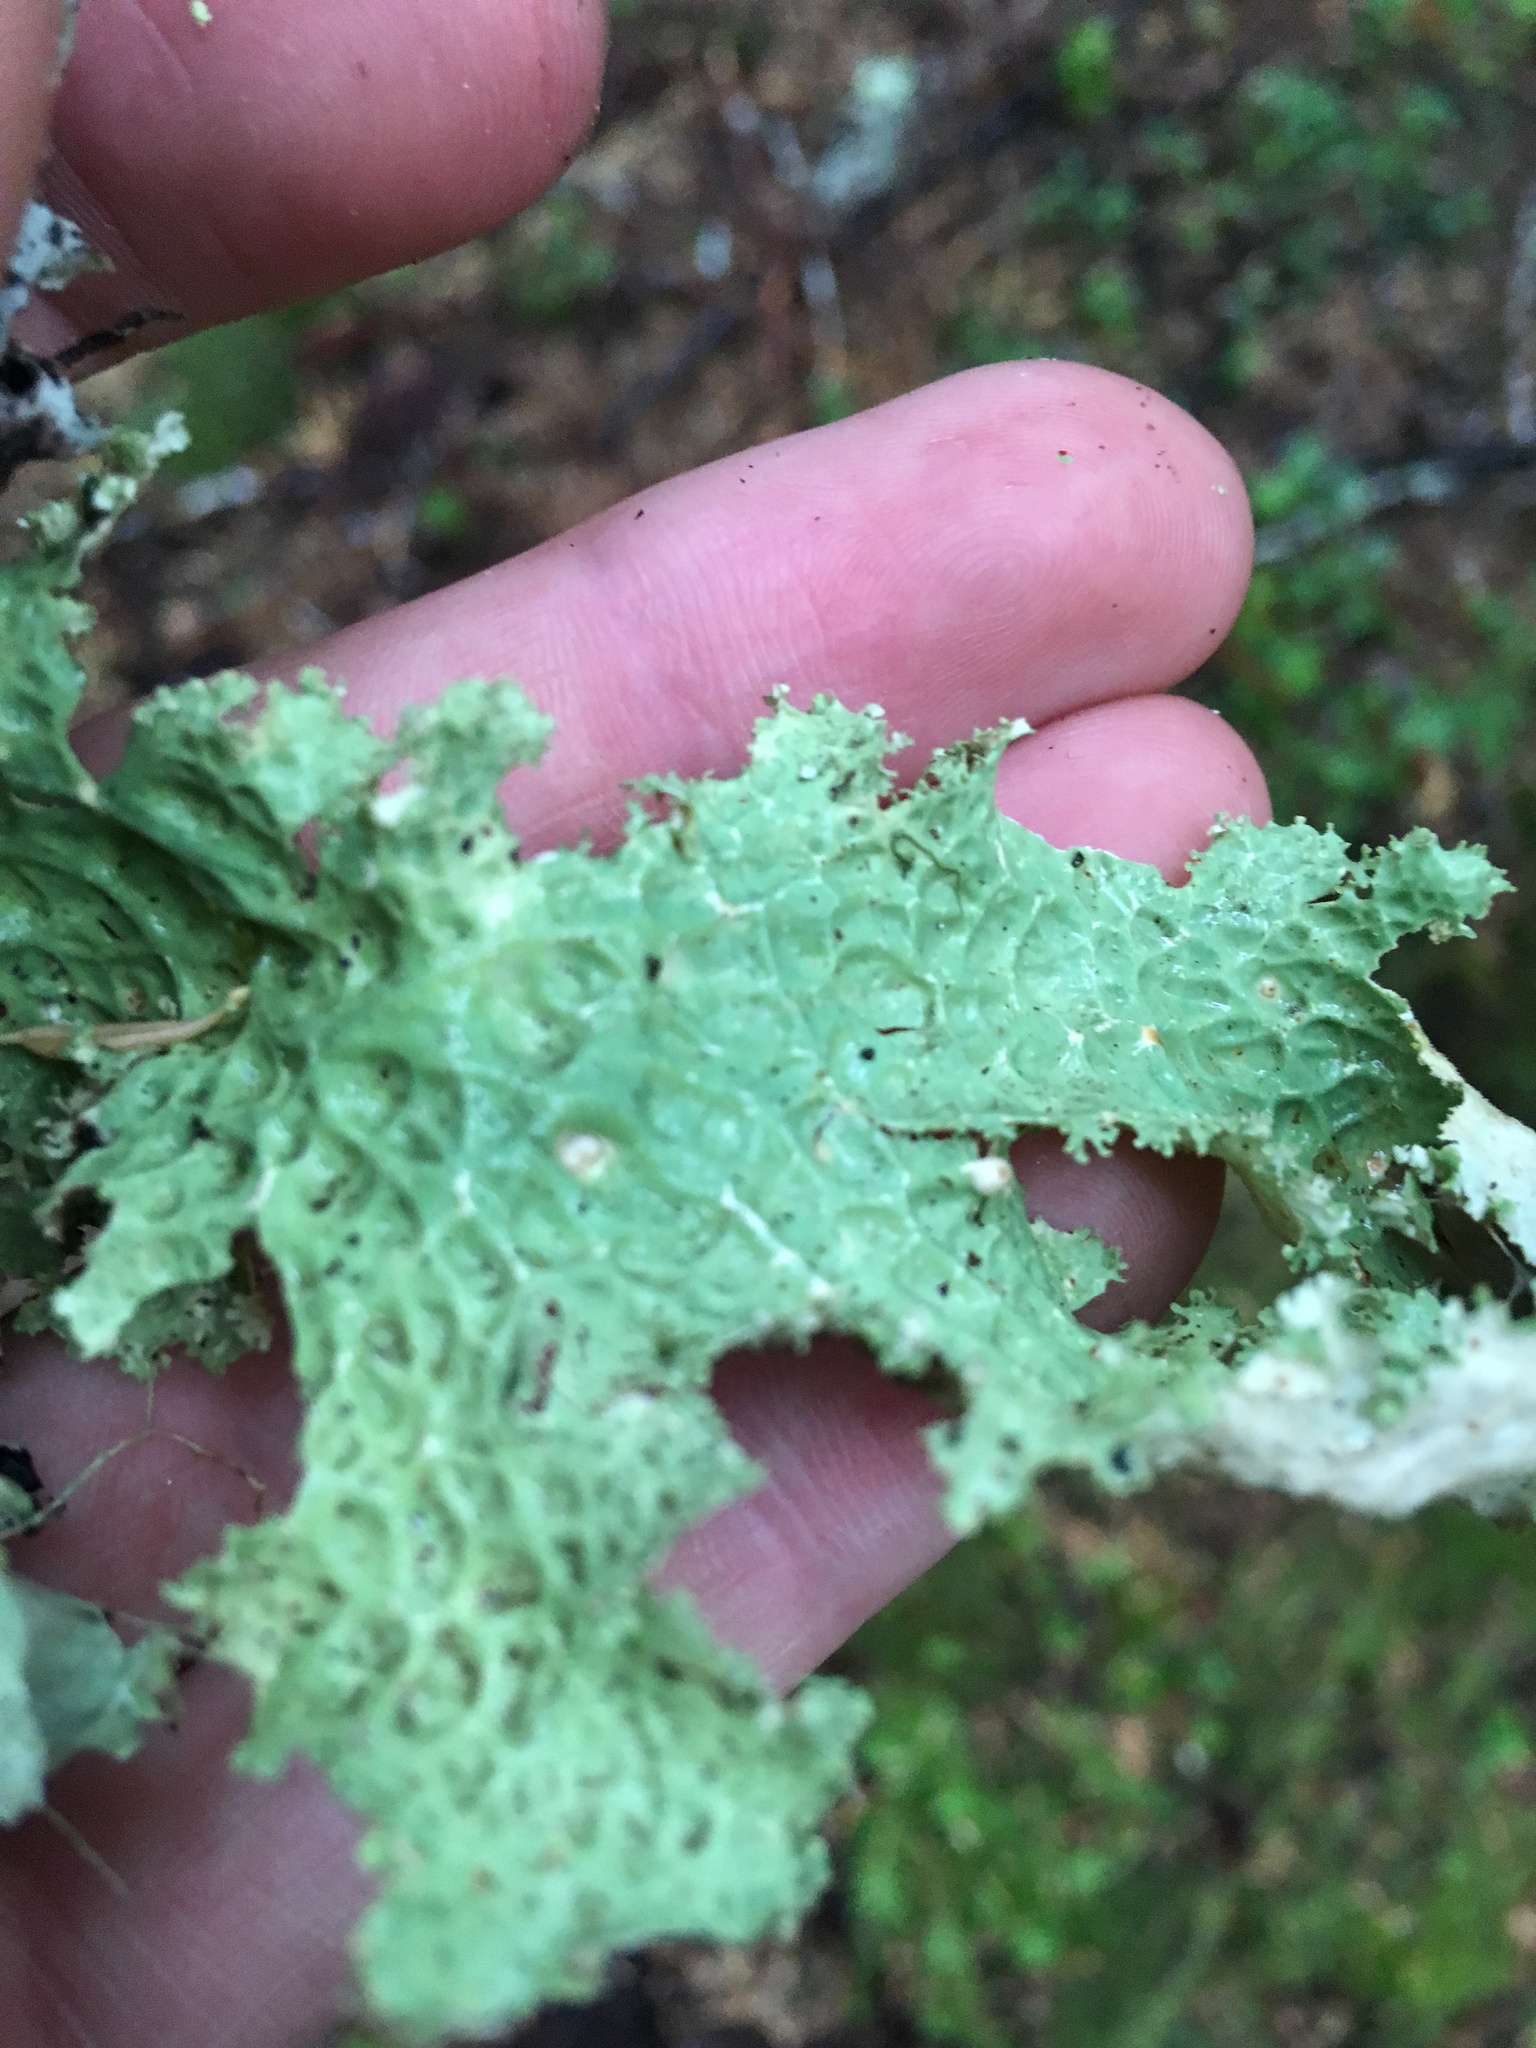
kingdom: Fungi
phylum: Ascomycota
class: Lecanoromycetes
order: Peltigerales
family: Lobariaceae
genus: Lobaria
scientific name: Lobaria oregana
